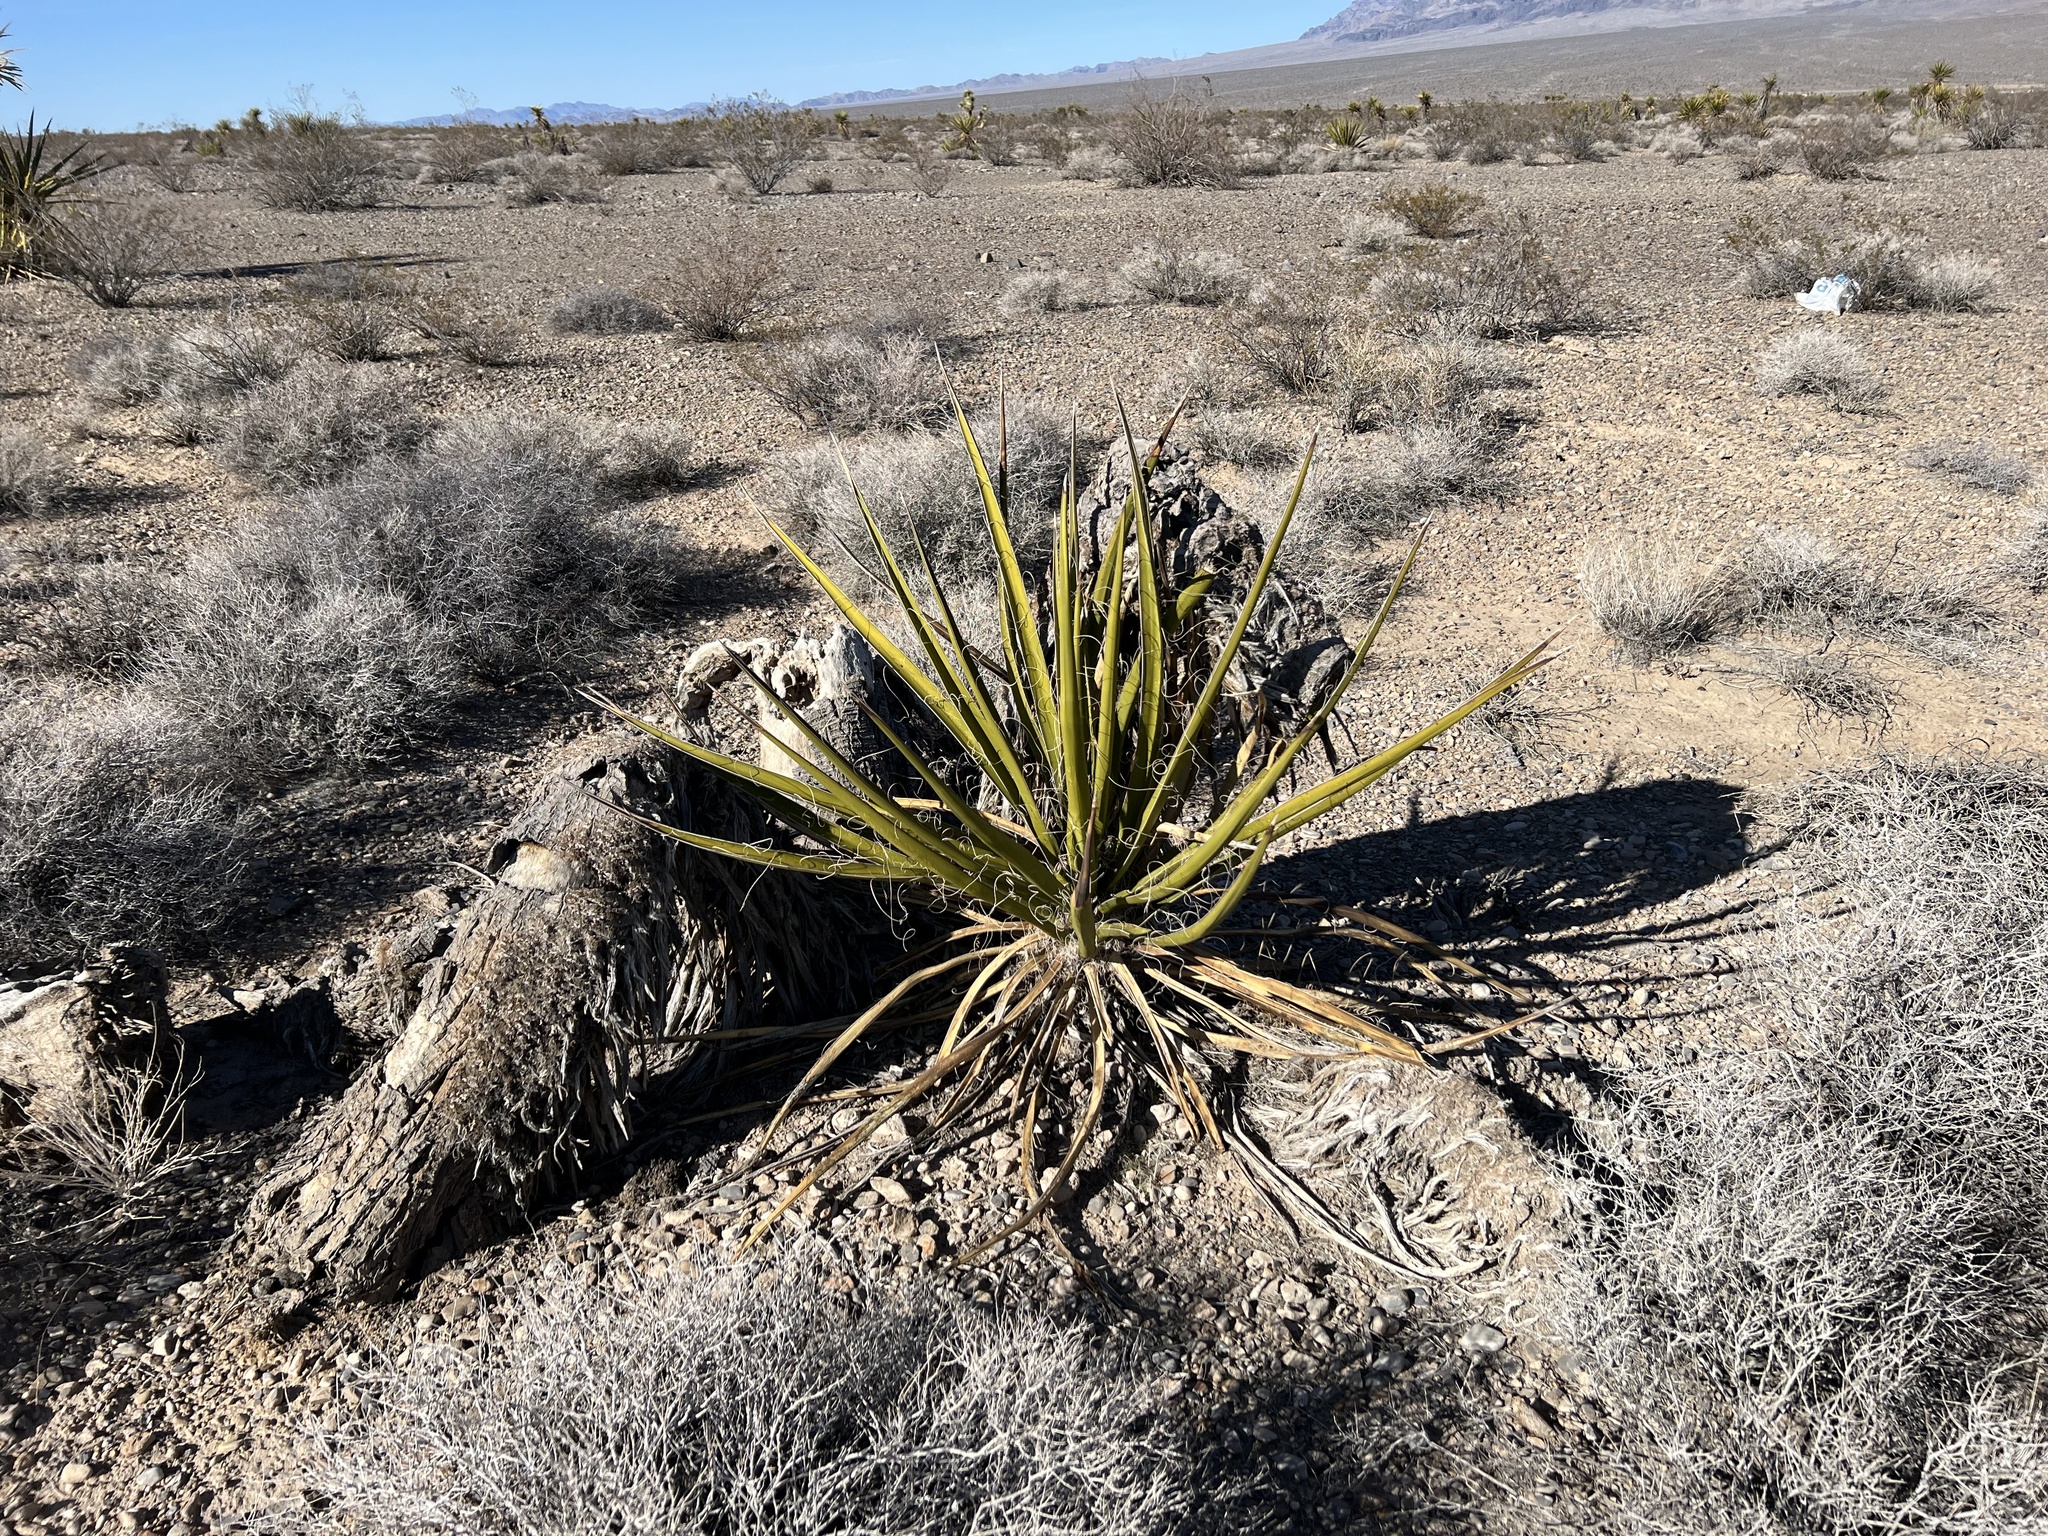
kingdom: Plantae
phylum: Tracheophyta
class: Liliopsida
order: Asparagales
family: Asparagaceae
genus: Yucca
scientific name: Yucca schidigera
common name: Mojave yucca
